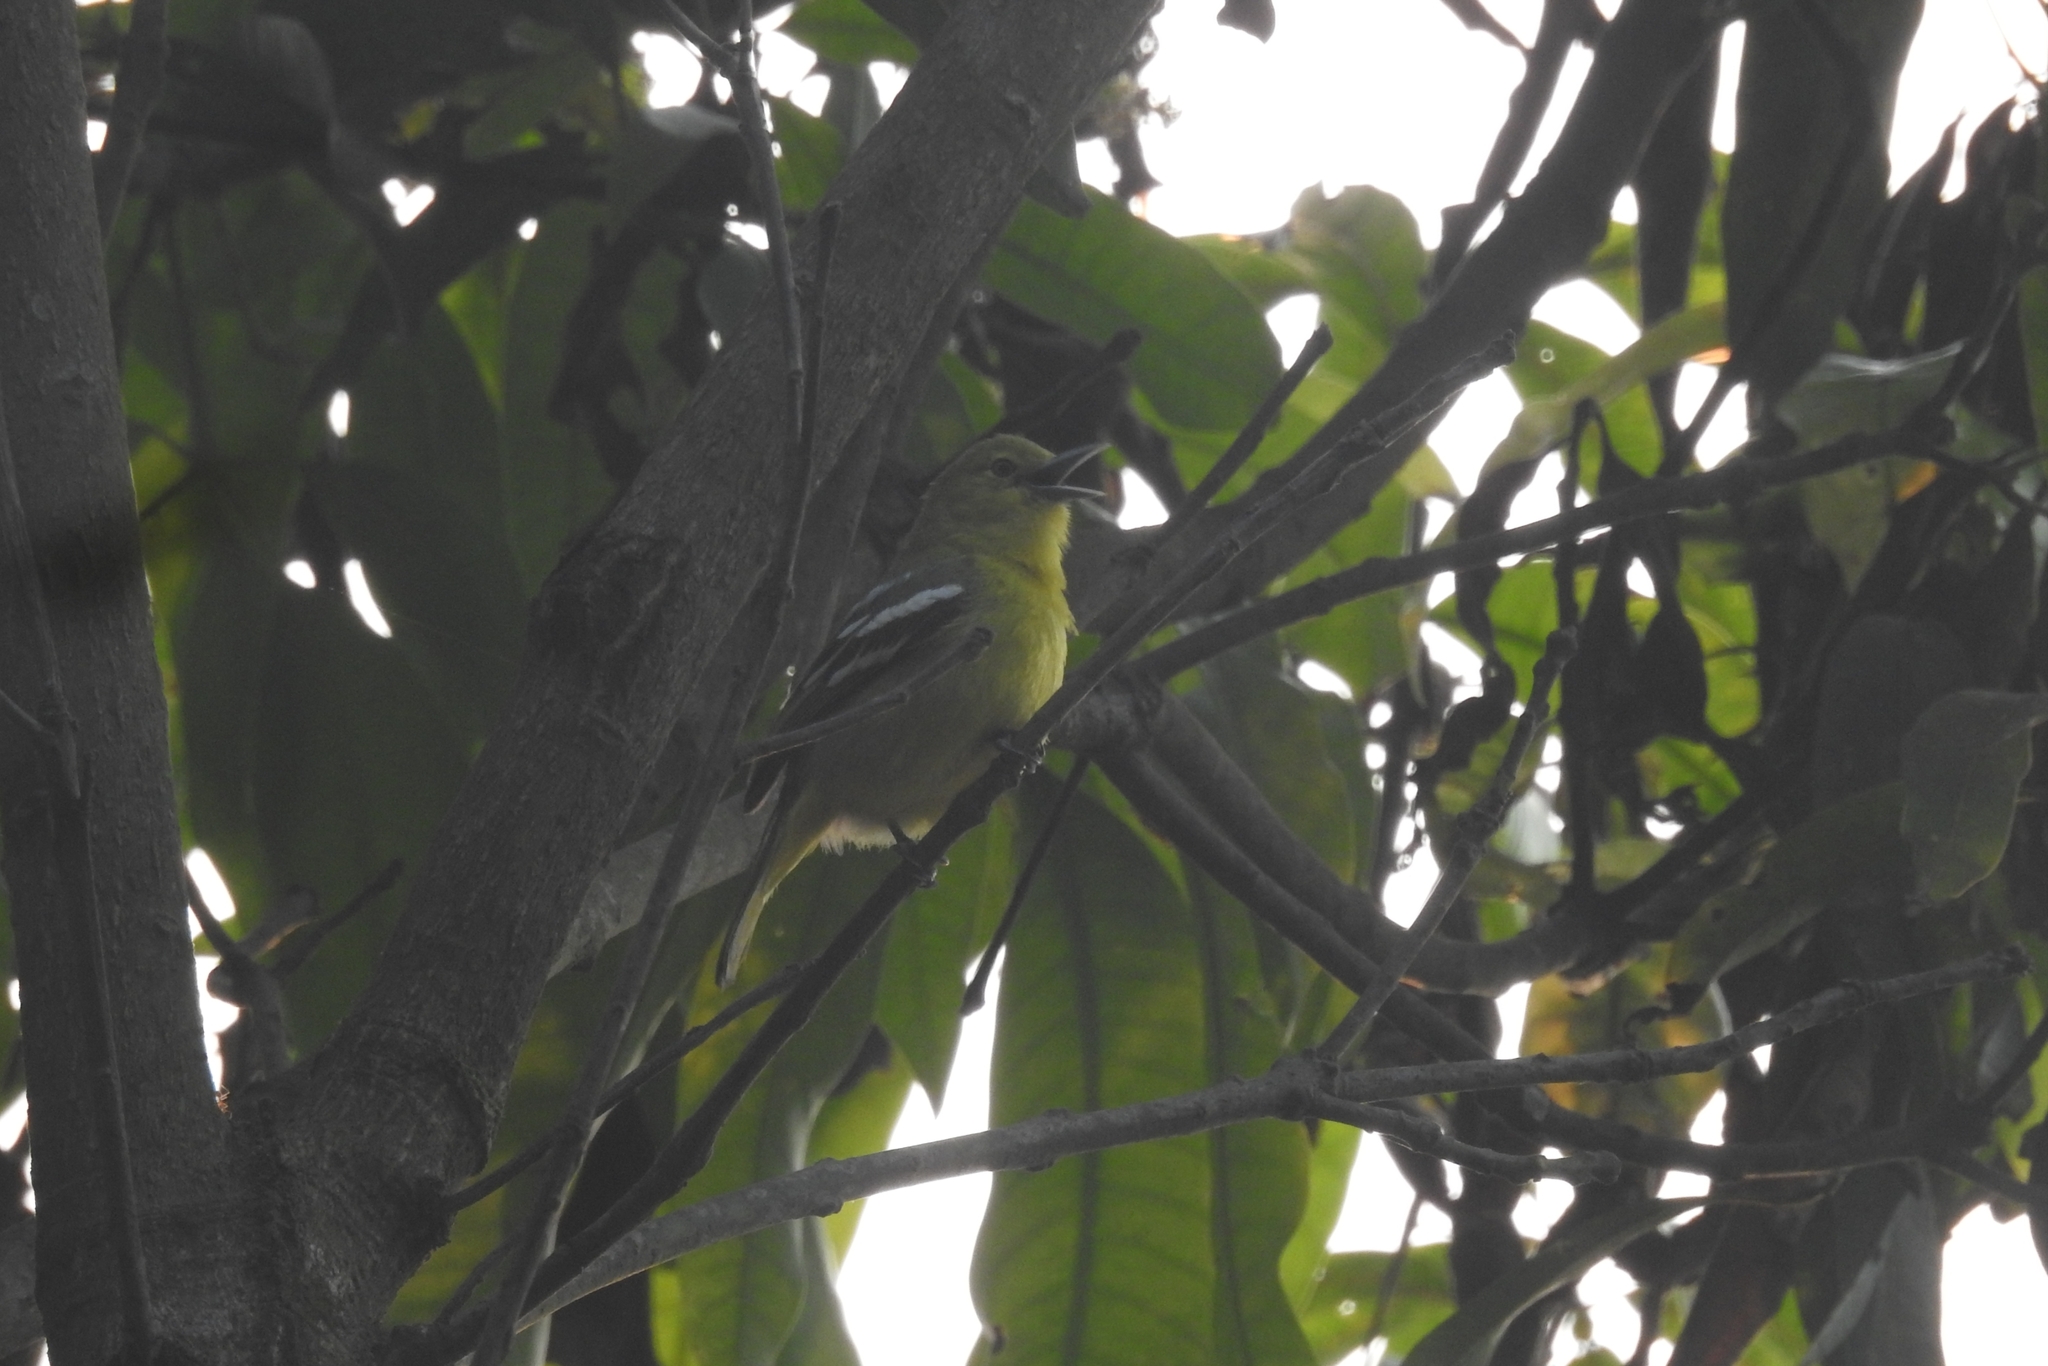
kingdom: Animalia
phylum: Chordata
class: Aves
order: Passeriformes
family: Aegithinidae
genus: Aegithina
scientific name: Aegithina tiphia
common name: Common iora
